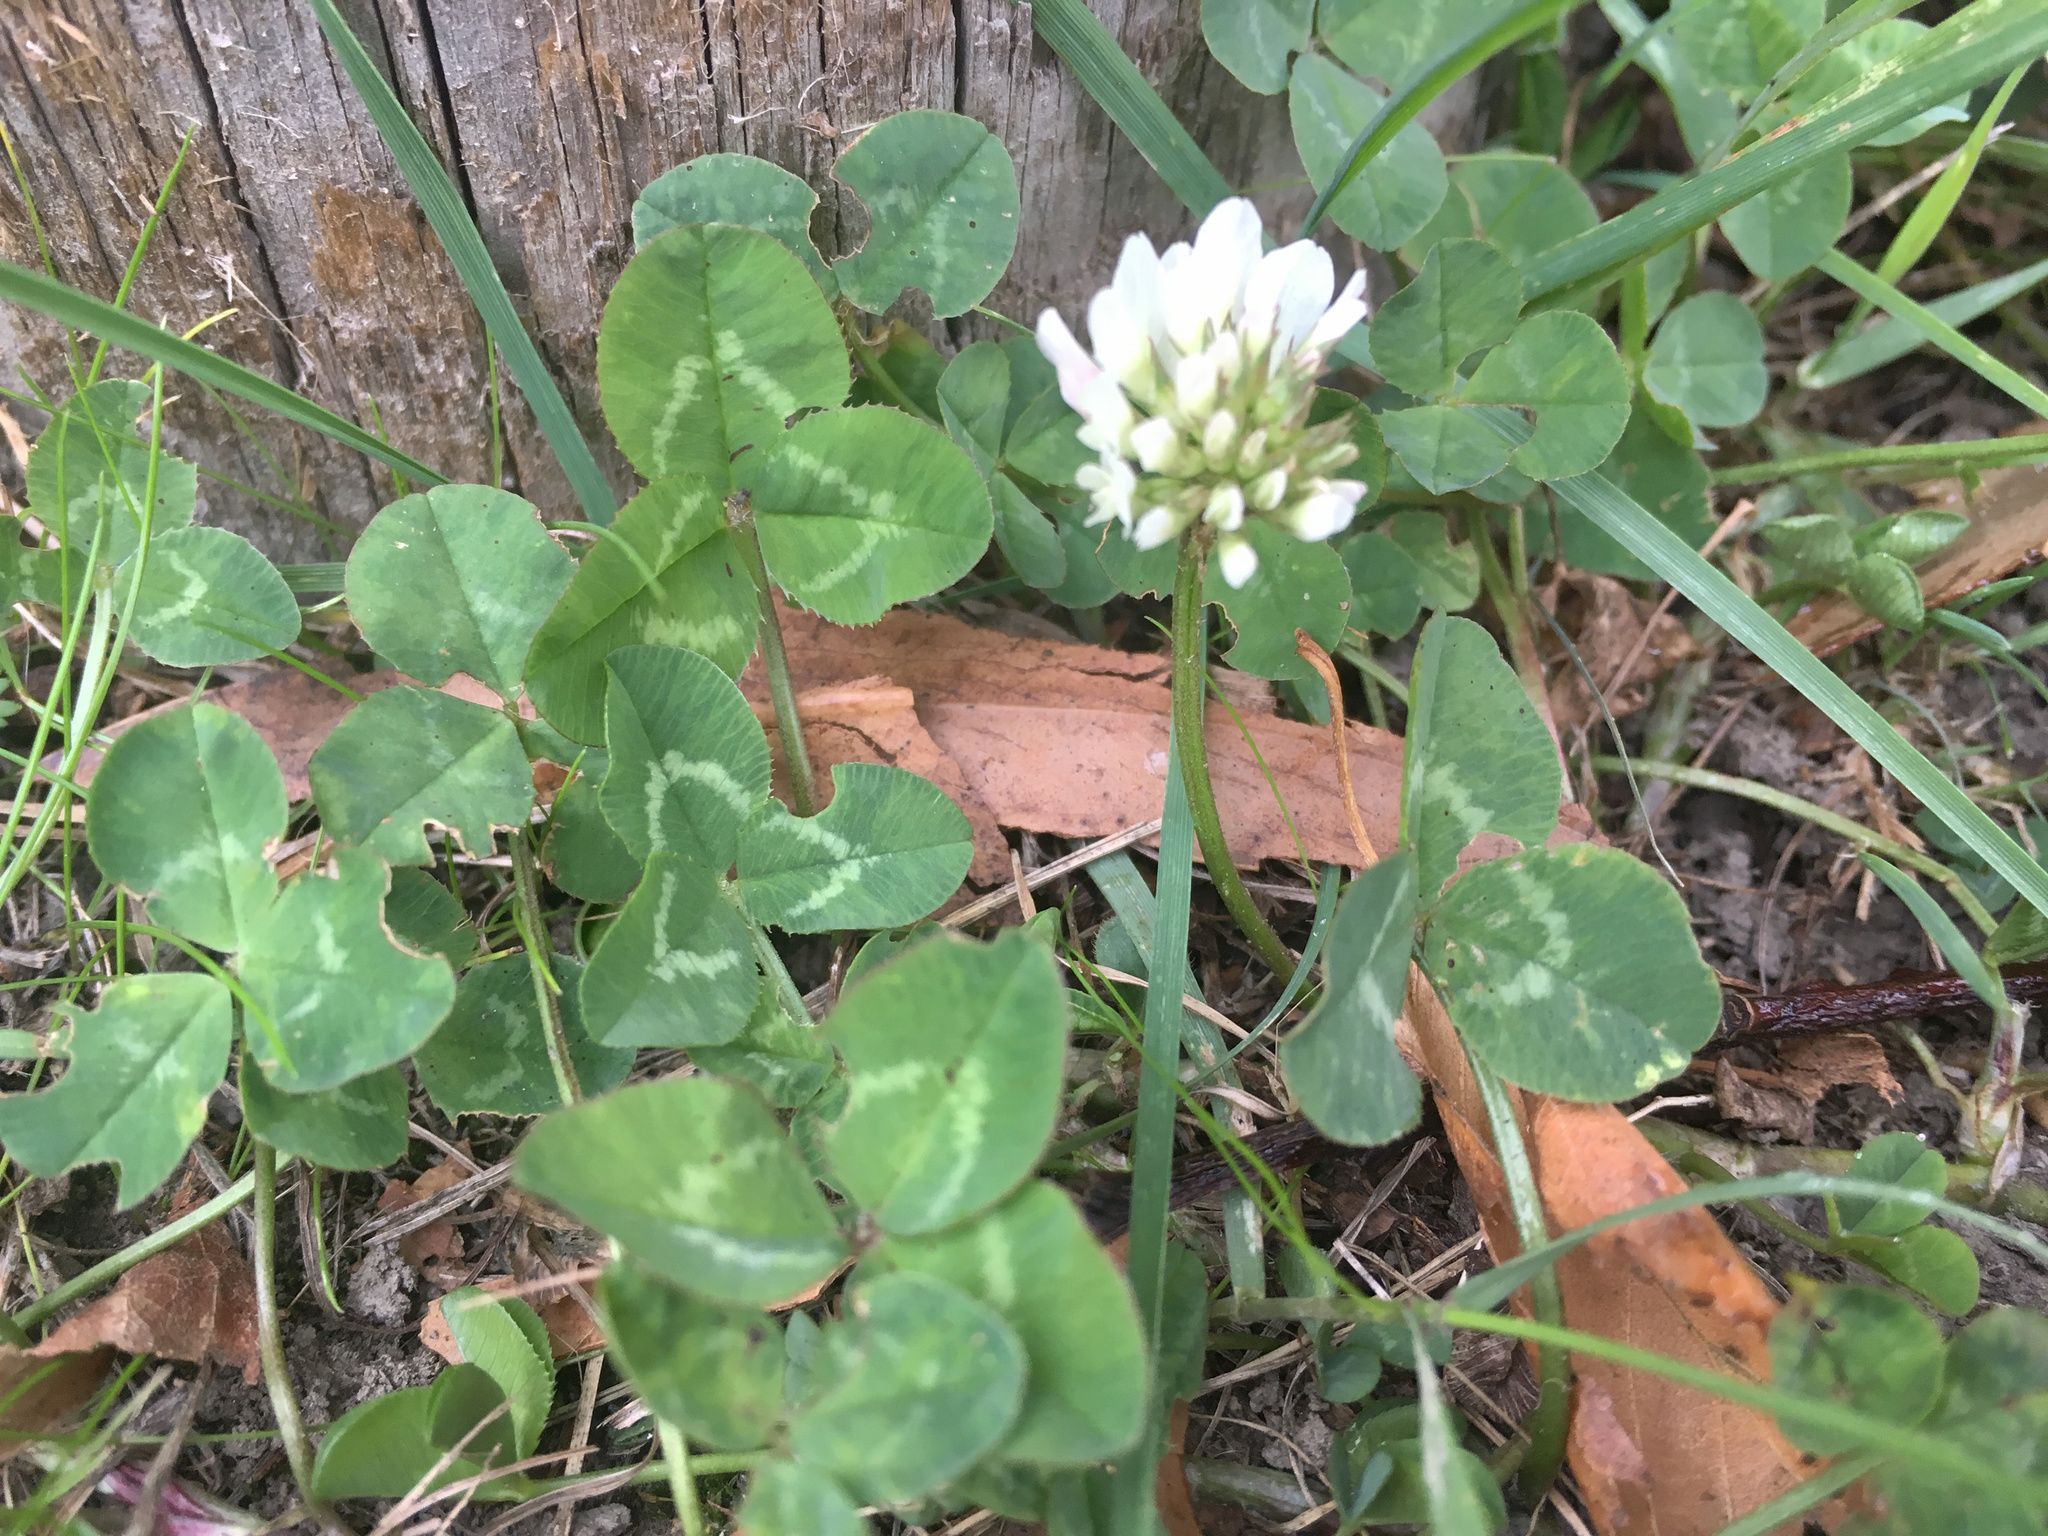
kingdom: Plantae
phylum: Tracheophyta
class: Magnoliopsida
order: Fabales
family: Fabaceae
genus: Trifolium
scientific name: Trifolium repens
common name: White clover
